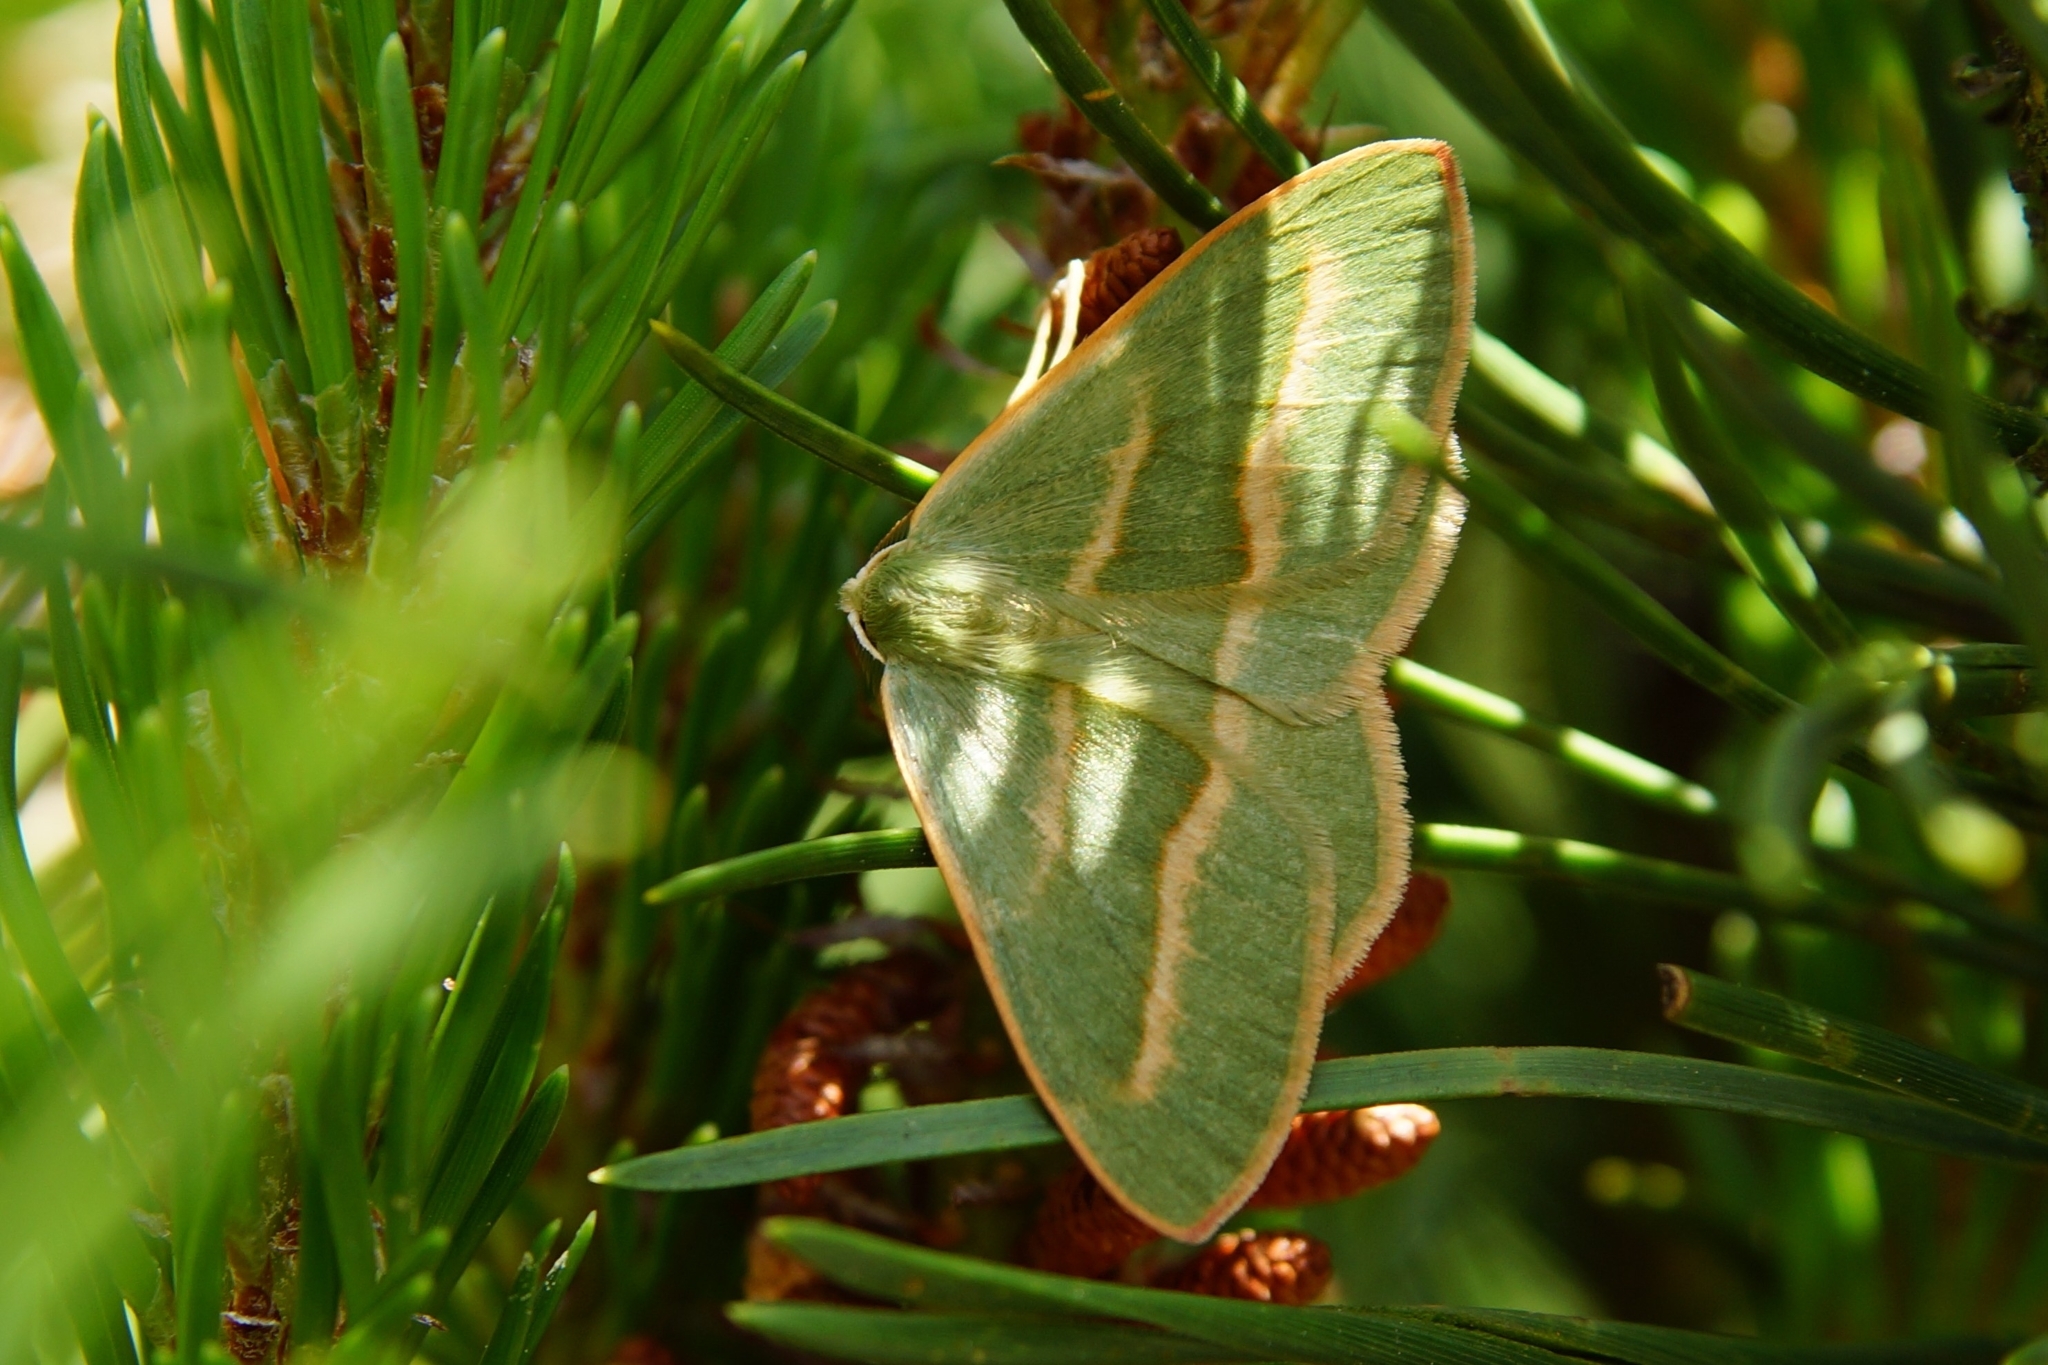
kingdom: Animalia
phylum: Arthropoda
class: Insecta
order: Lepidoptera
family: Geometridae
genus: Hylaea
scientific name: Hylaea fasciaria
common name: Barred red
